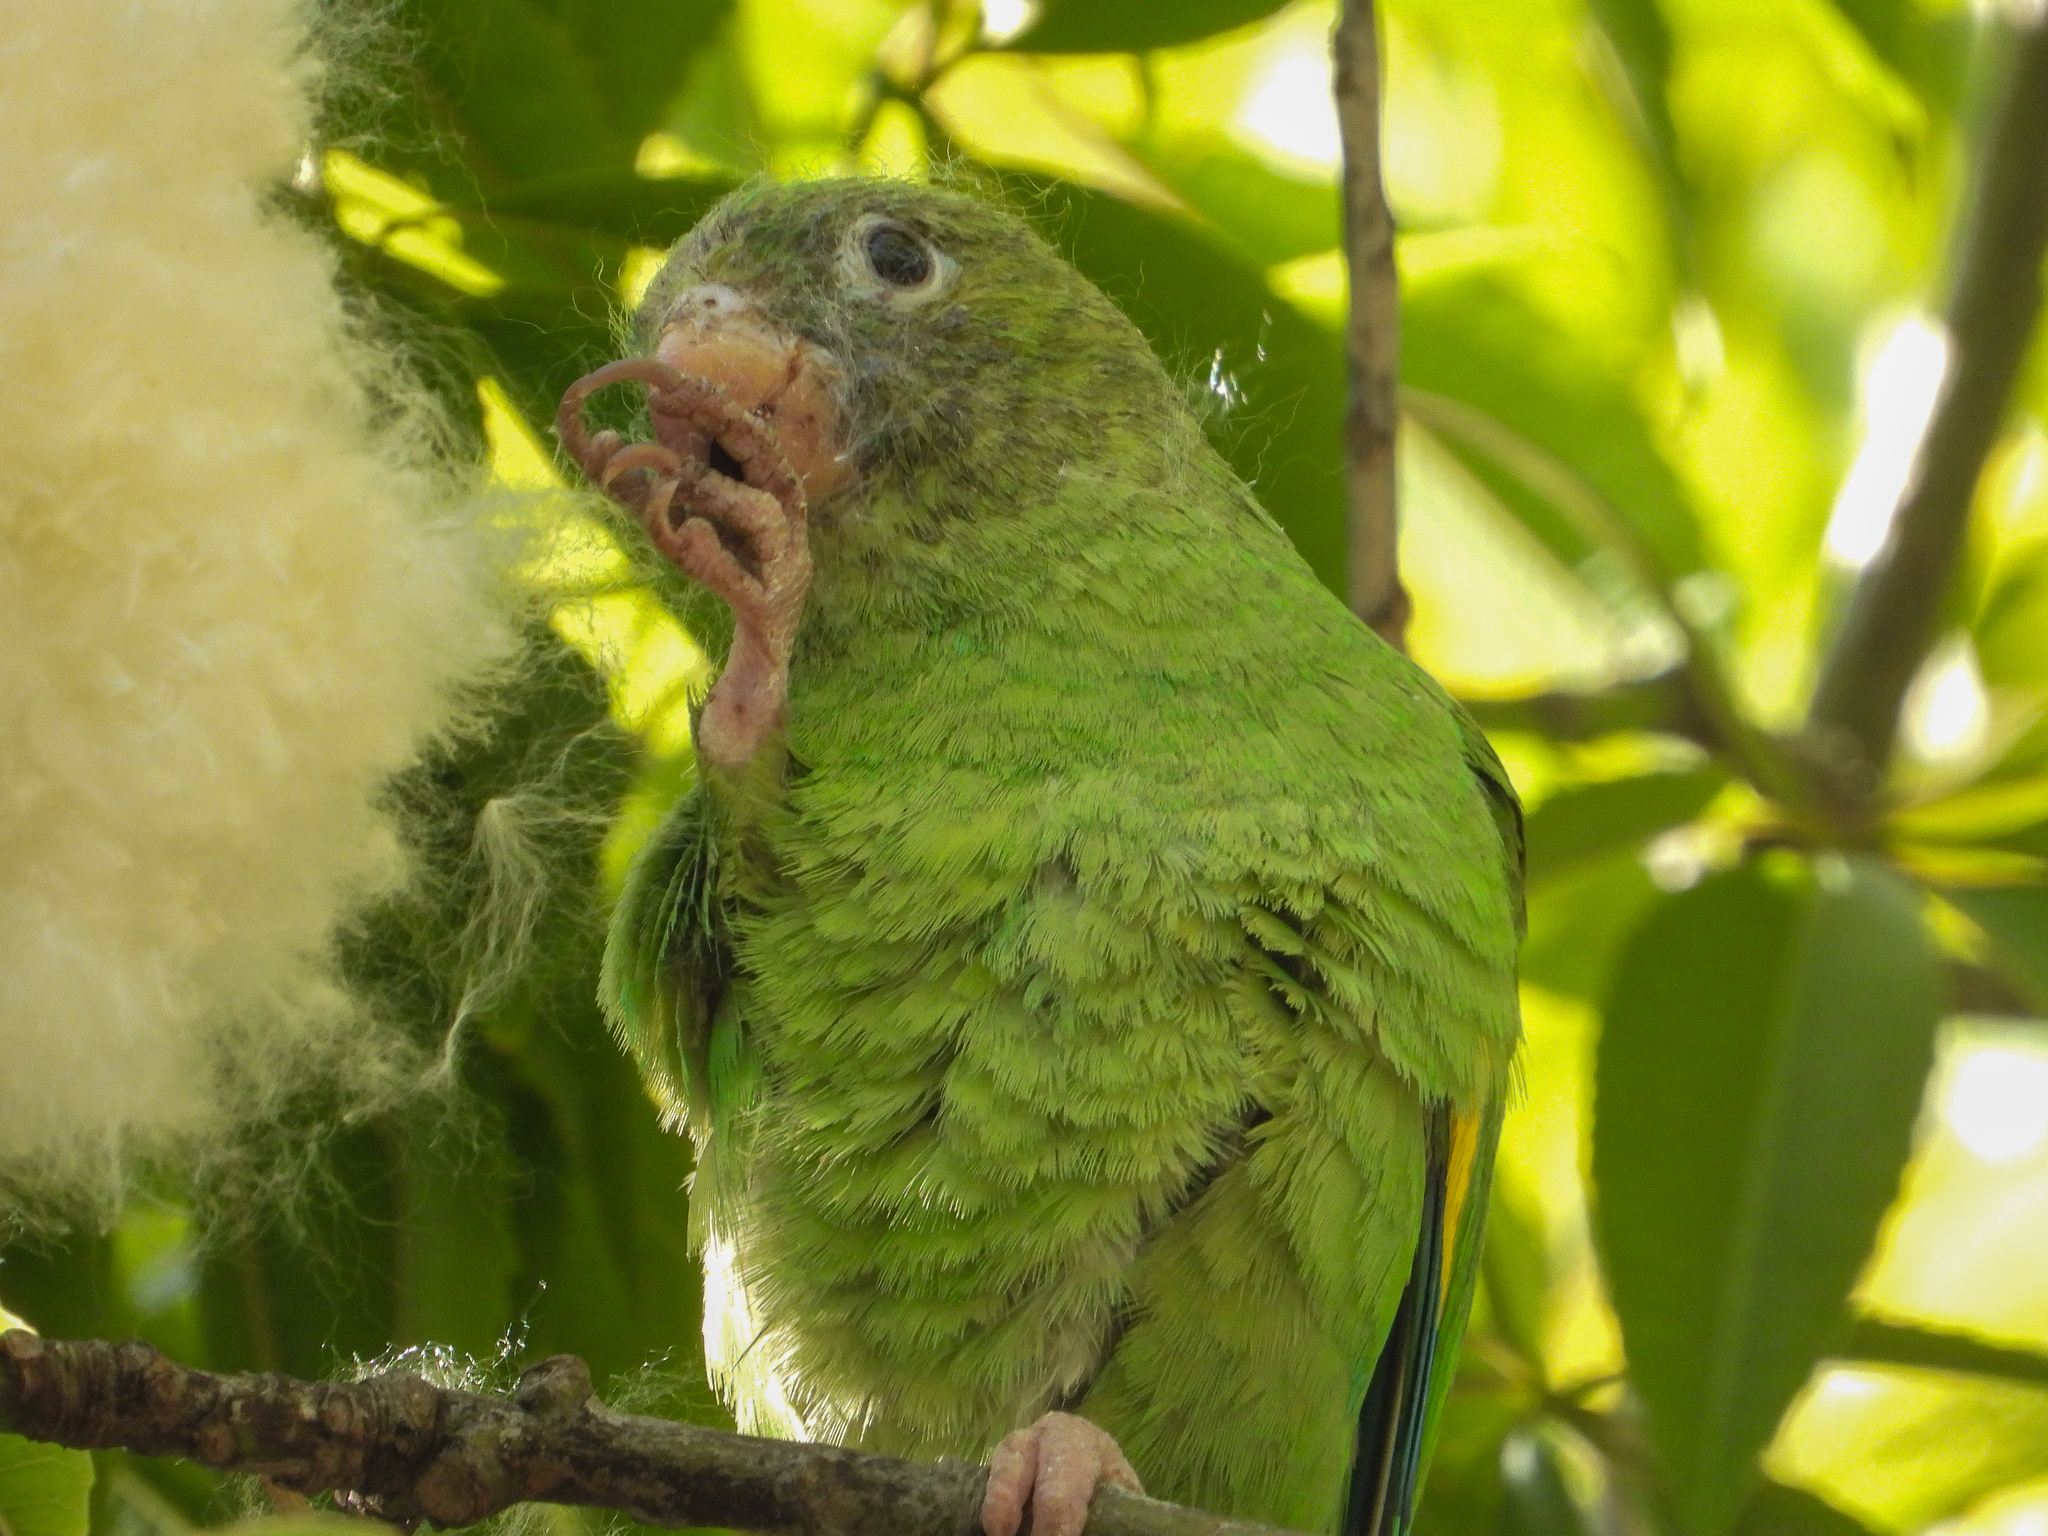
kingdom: Animalia
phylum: Chordata
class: Aves
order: Psittaciformes
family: Psittacidae
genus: Brotogeris
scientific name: Brotogeris chiriri
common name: Yellow-chevroned parakeet
